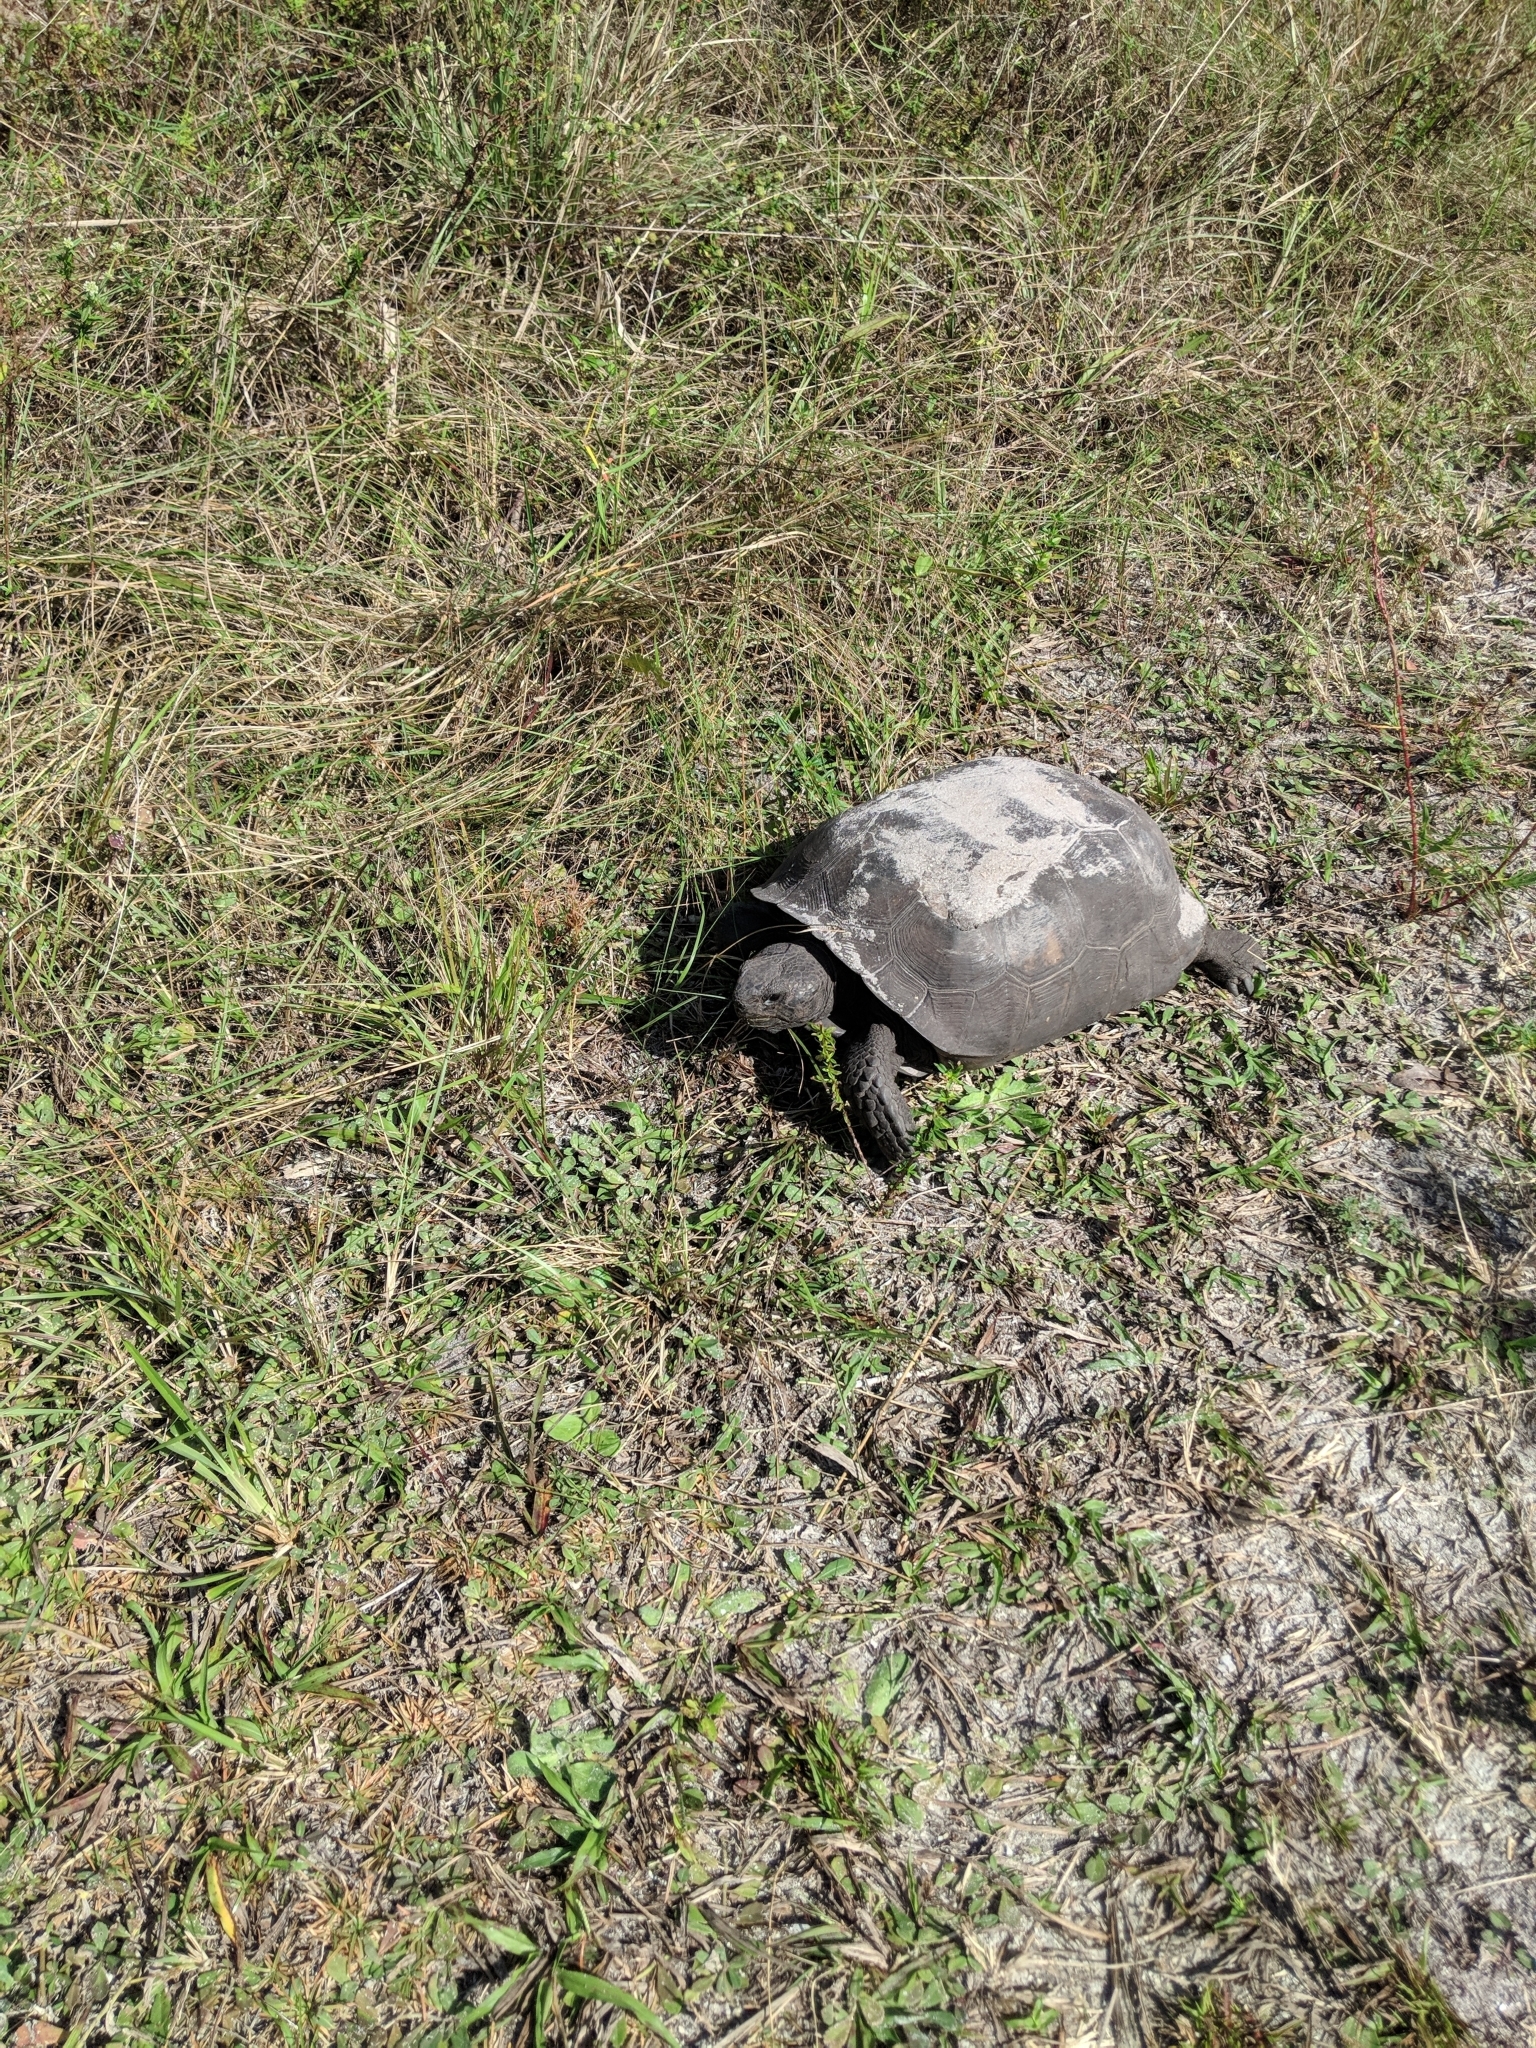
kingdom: Animalia
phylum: Chordata
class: Testudines
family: Testudinidae
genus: Gopherus
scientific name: Gopherus polyphemus
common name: Florida gopher tortoise
